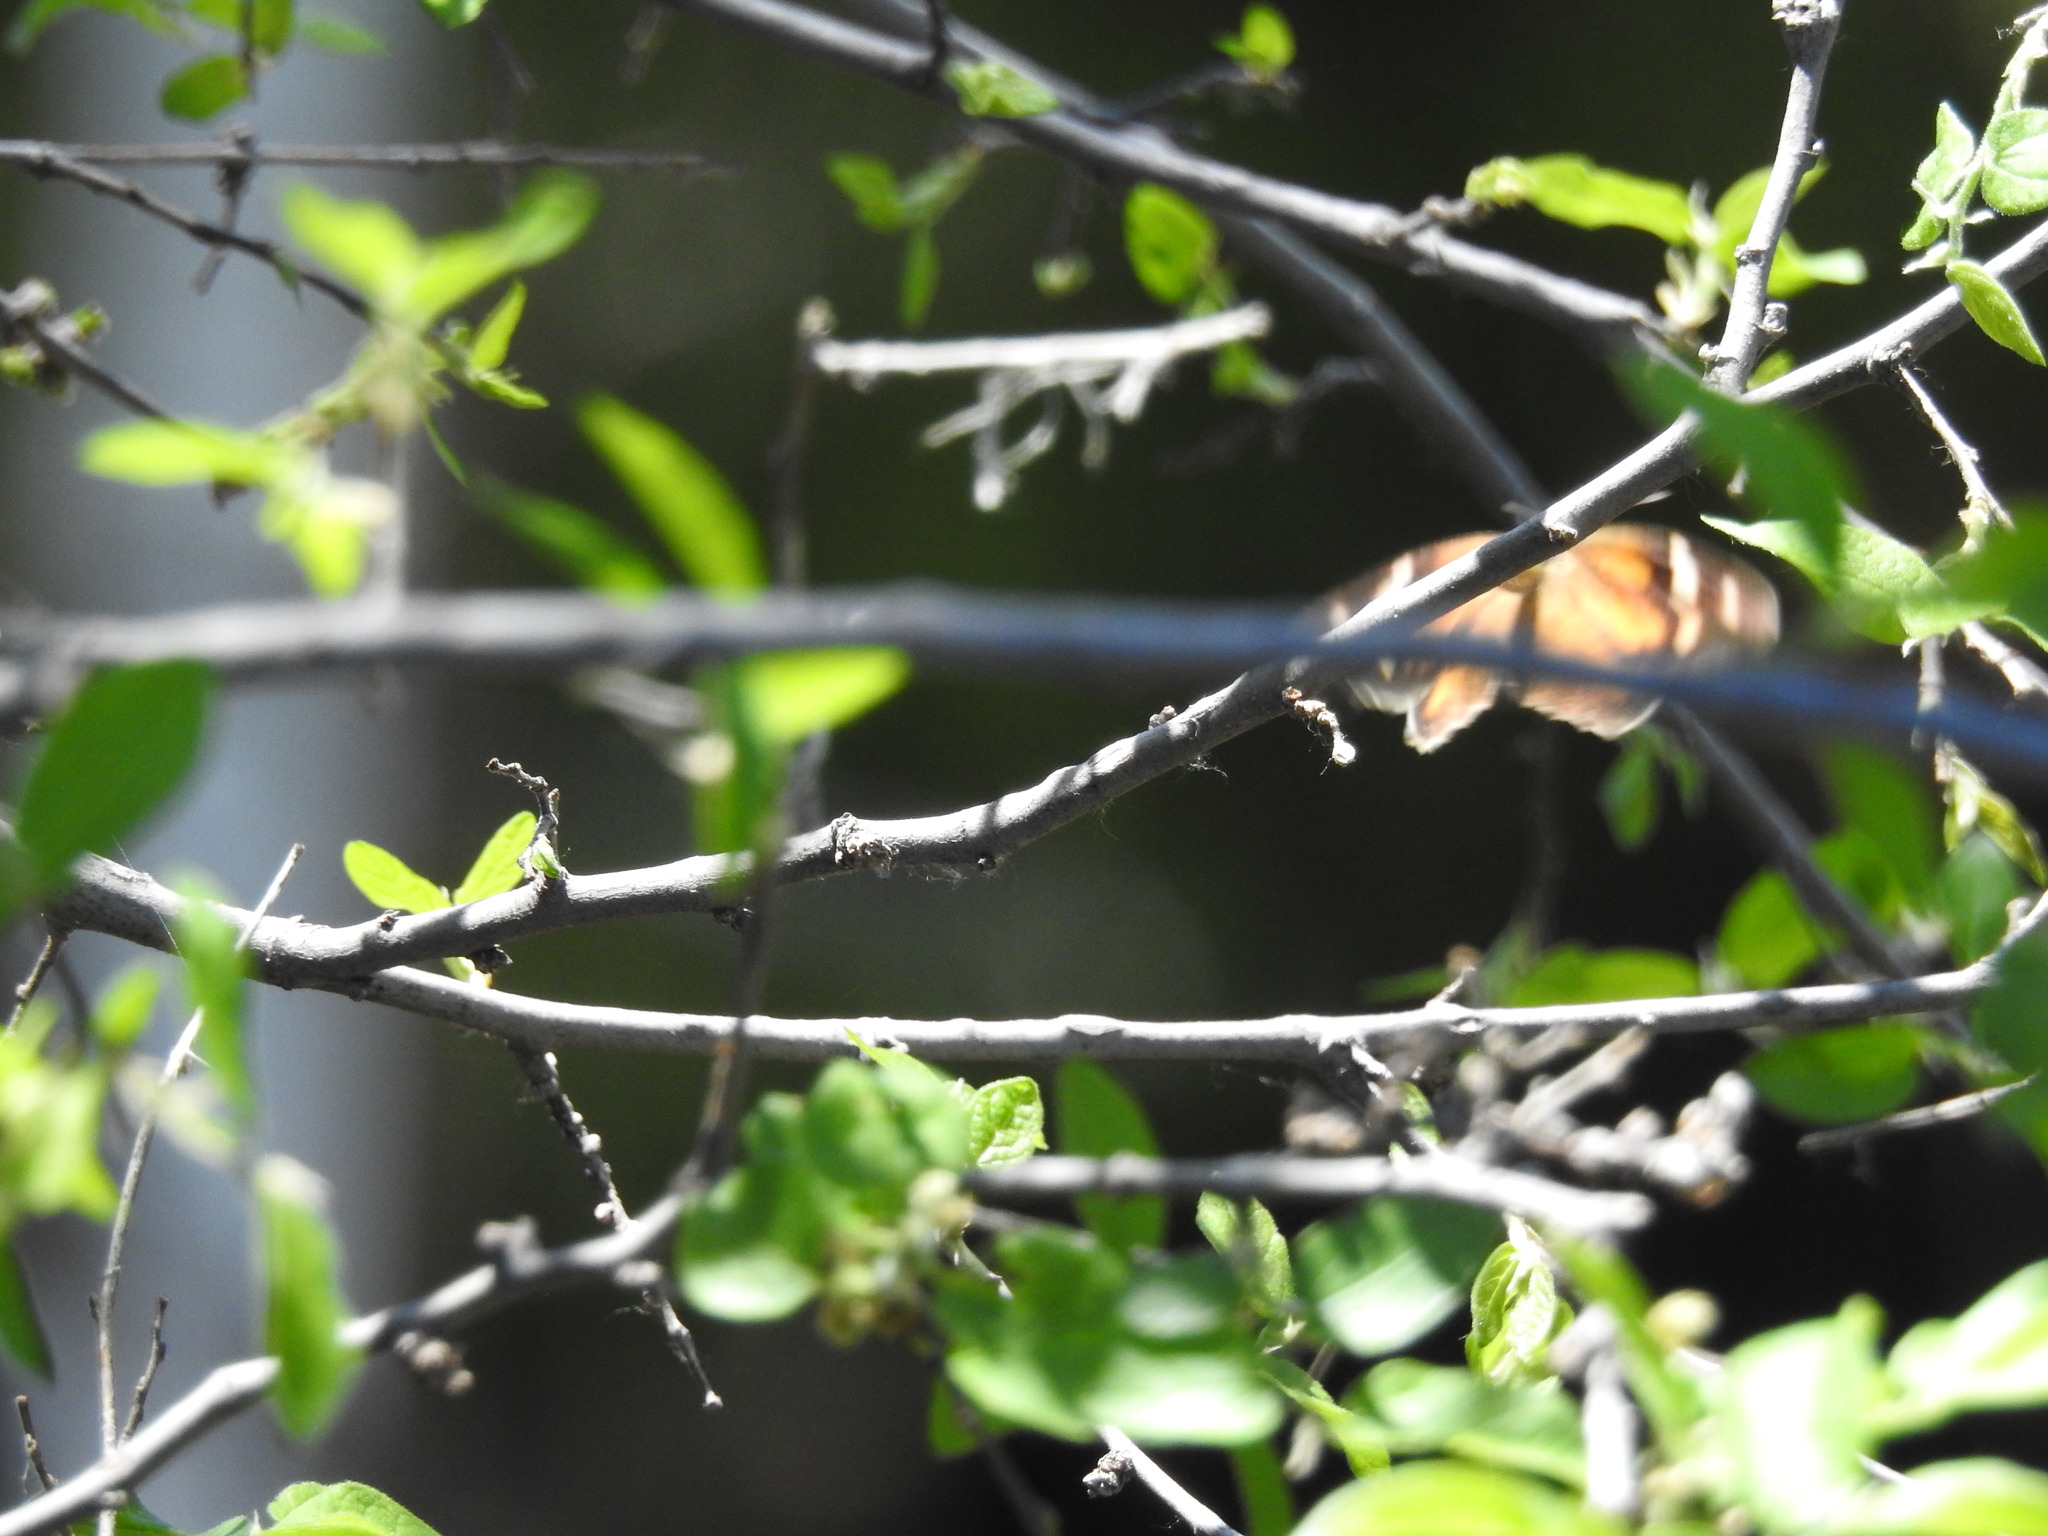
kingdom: Animalia
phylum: Arthropoda
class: Insecta
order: Lepidoptera
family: Nymphalidae
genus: Libytheana
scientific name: Libytheana carinenta
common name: American snout
